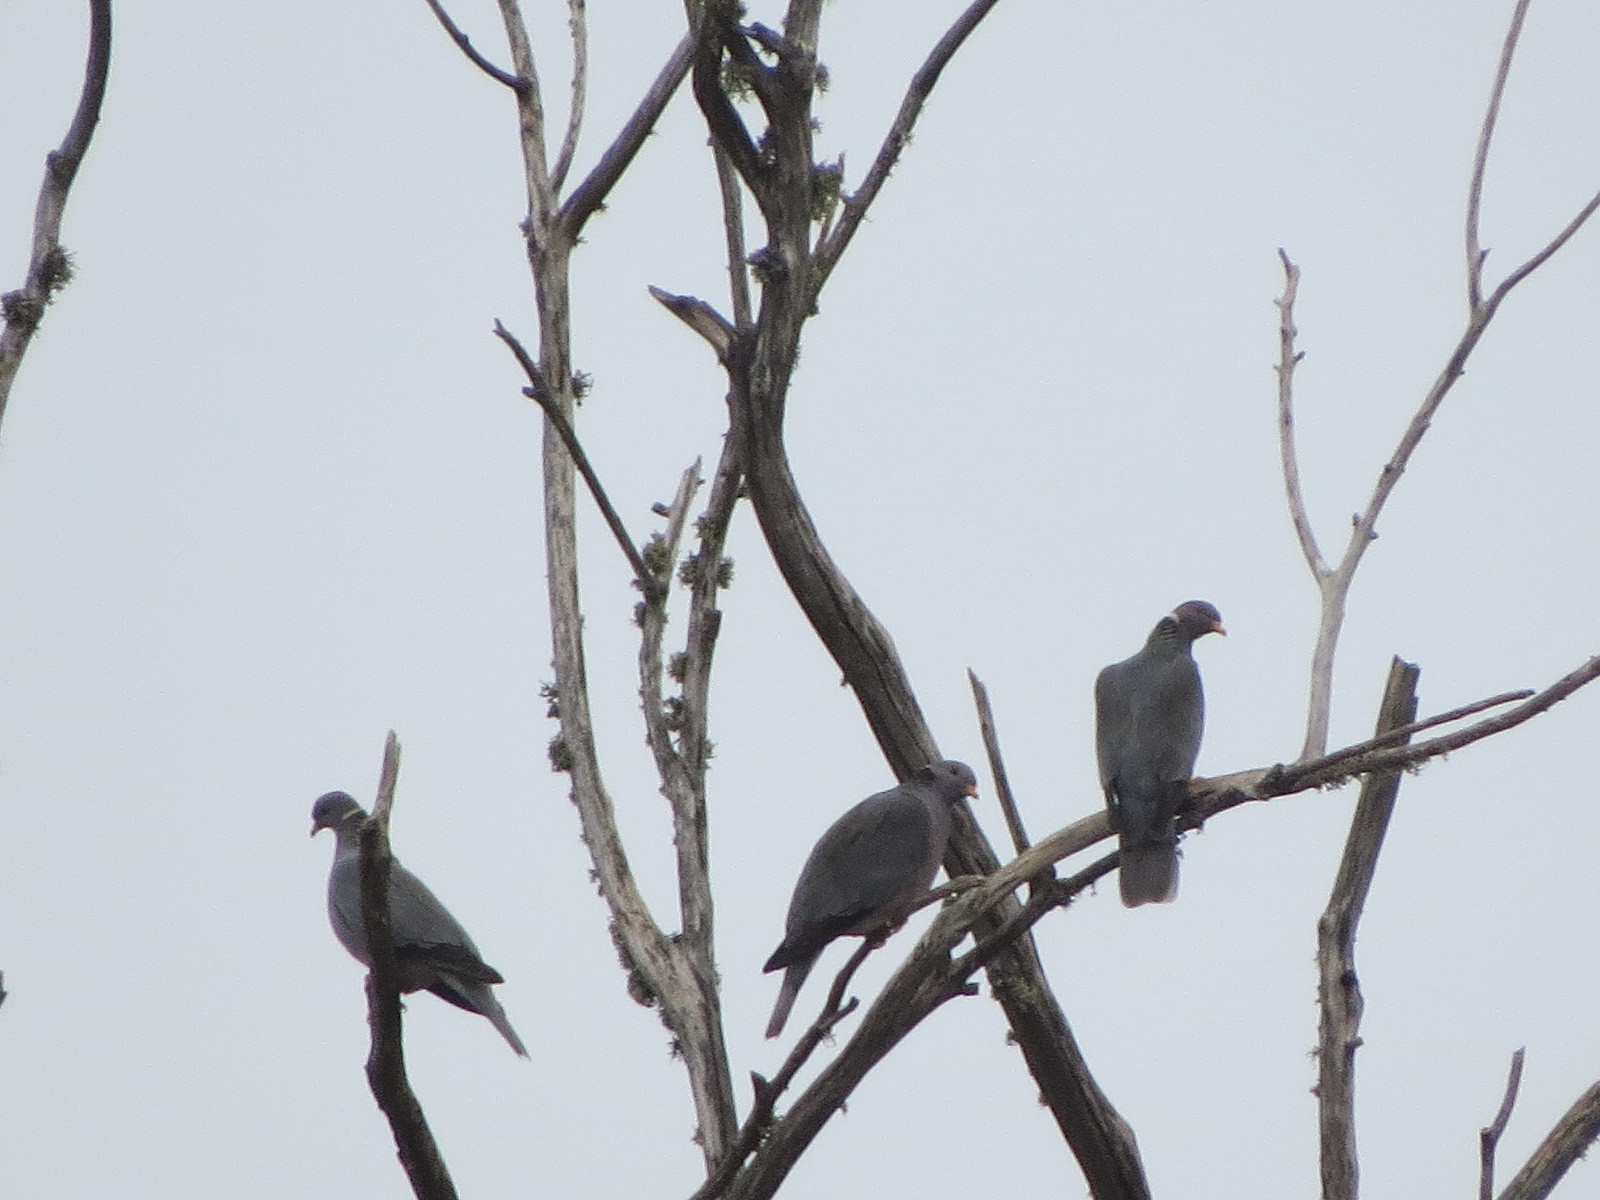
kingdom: Animalia
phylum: Chordata
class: Aves
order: Columbiformes
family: Columbidae
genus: Patagioenas
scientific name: Patagioenas fasciata
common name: Band-tailed pigeon
